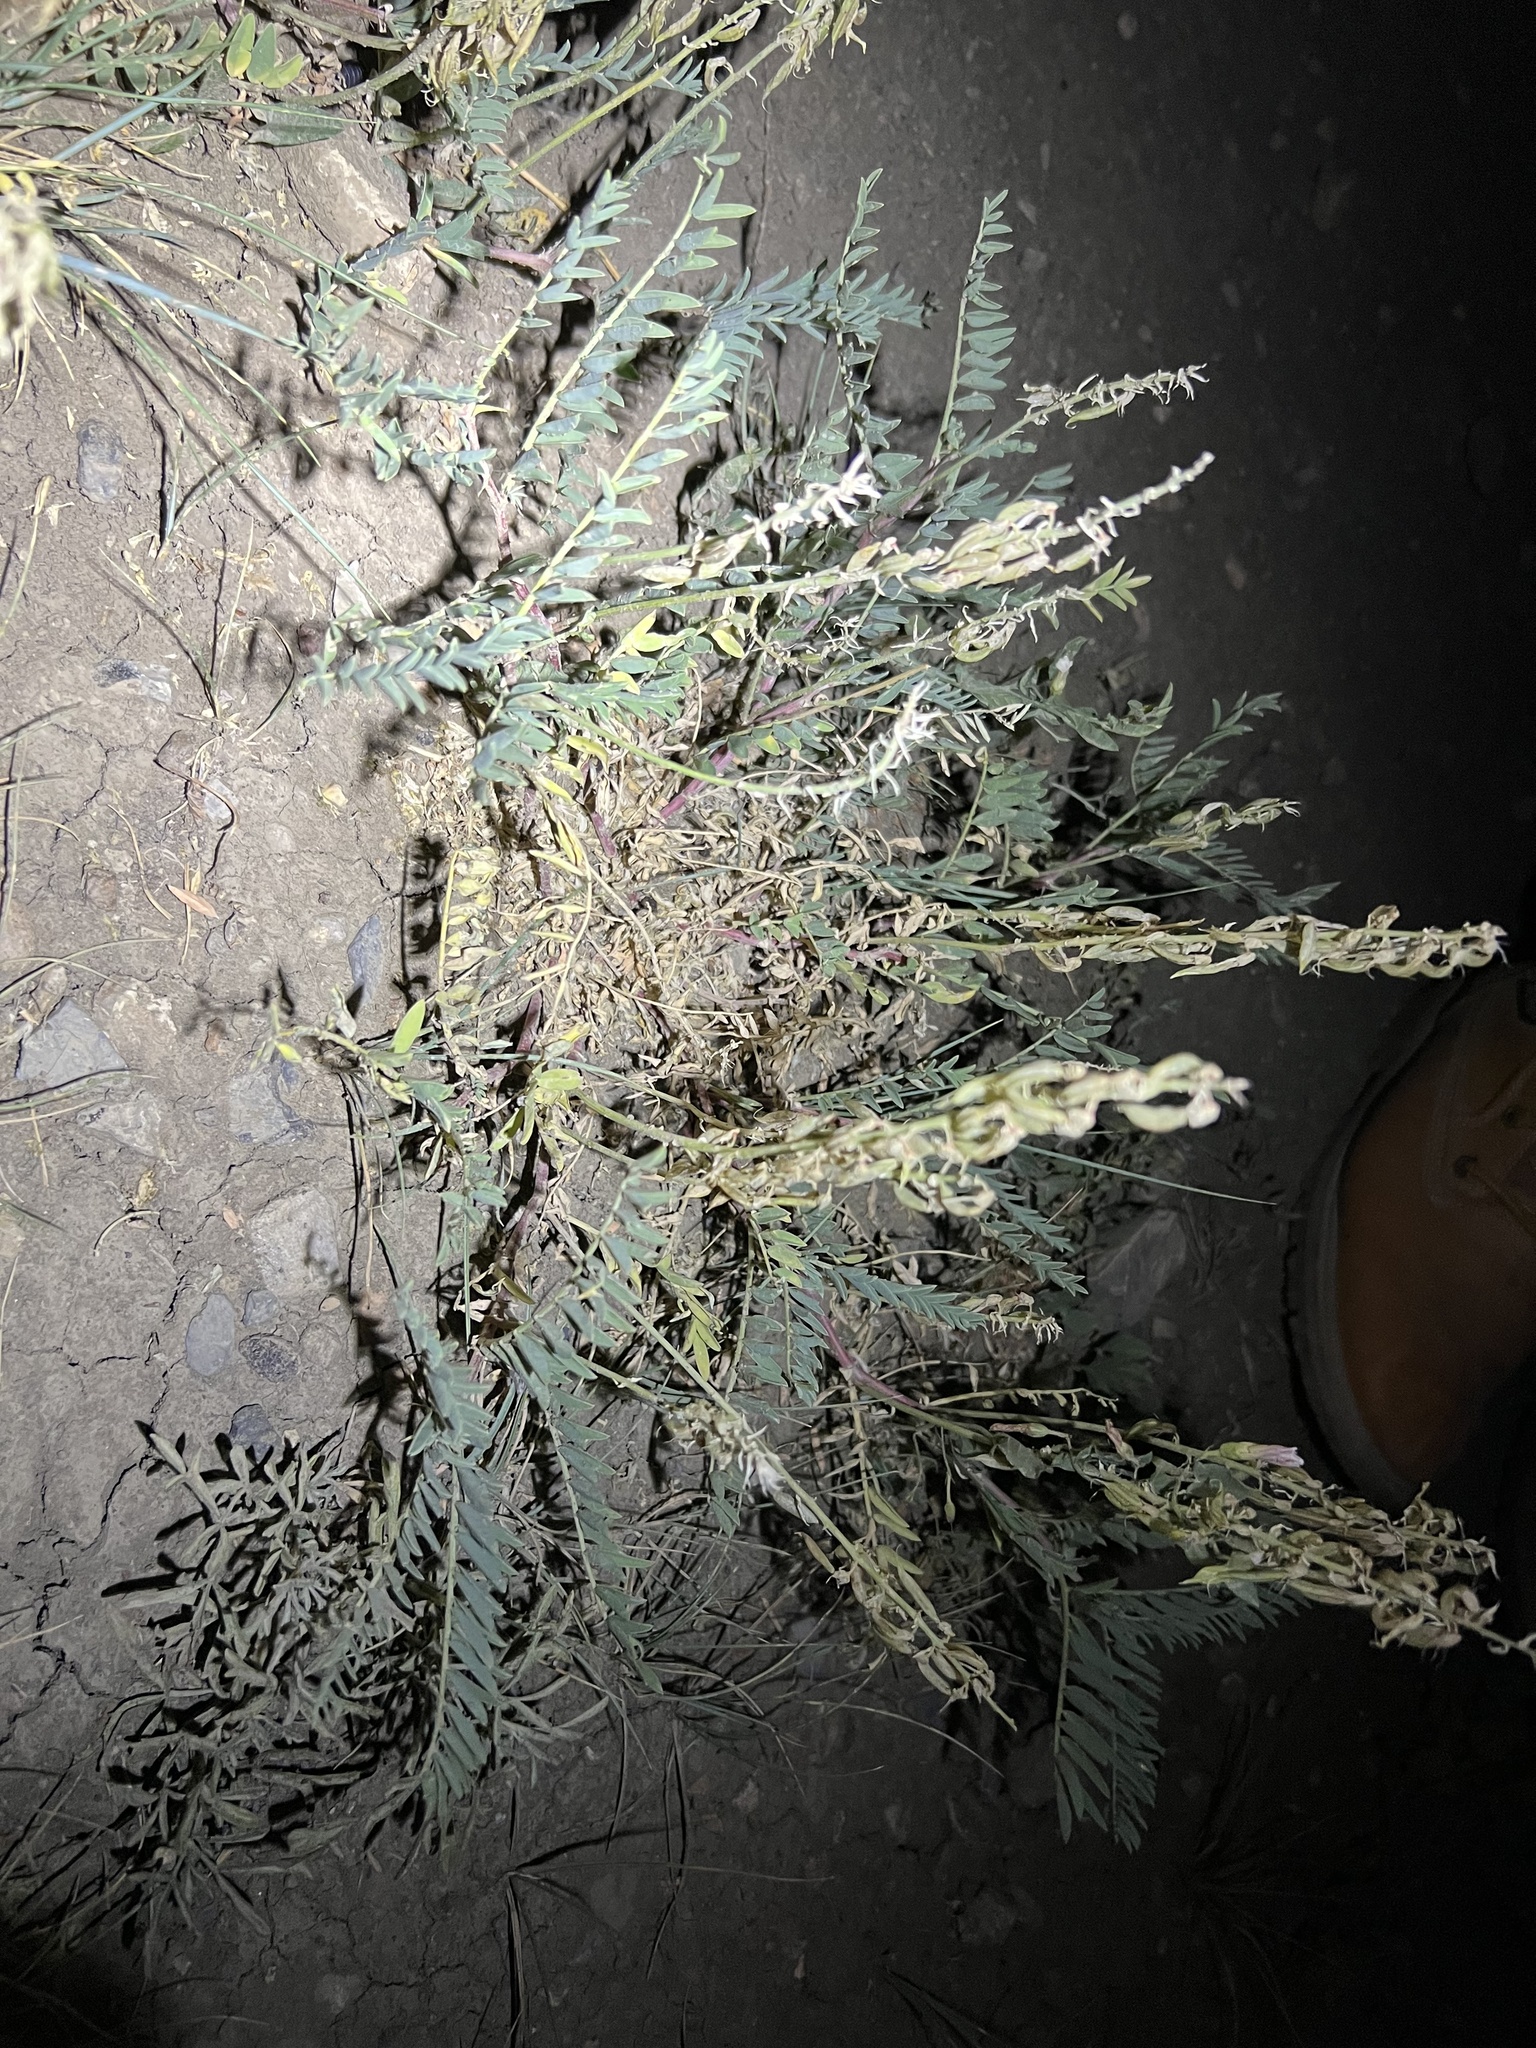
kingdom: Plantae
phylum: Tracheophyta
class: Magnoliopsida
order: Fabales
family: Fabaceae
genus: Astragalus
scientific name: Astragalus bisulcatus
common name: Two-groove milk-vetch
